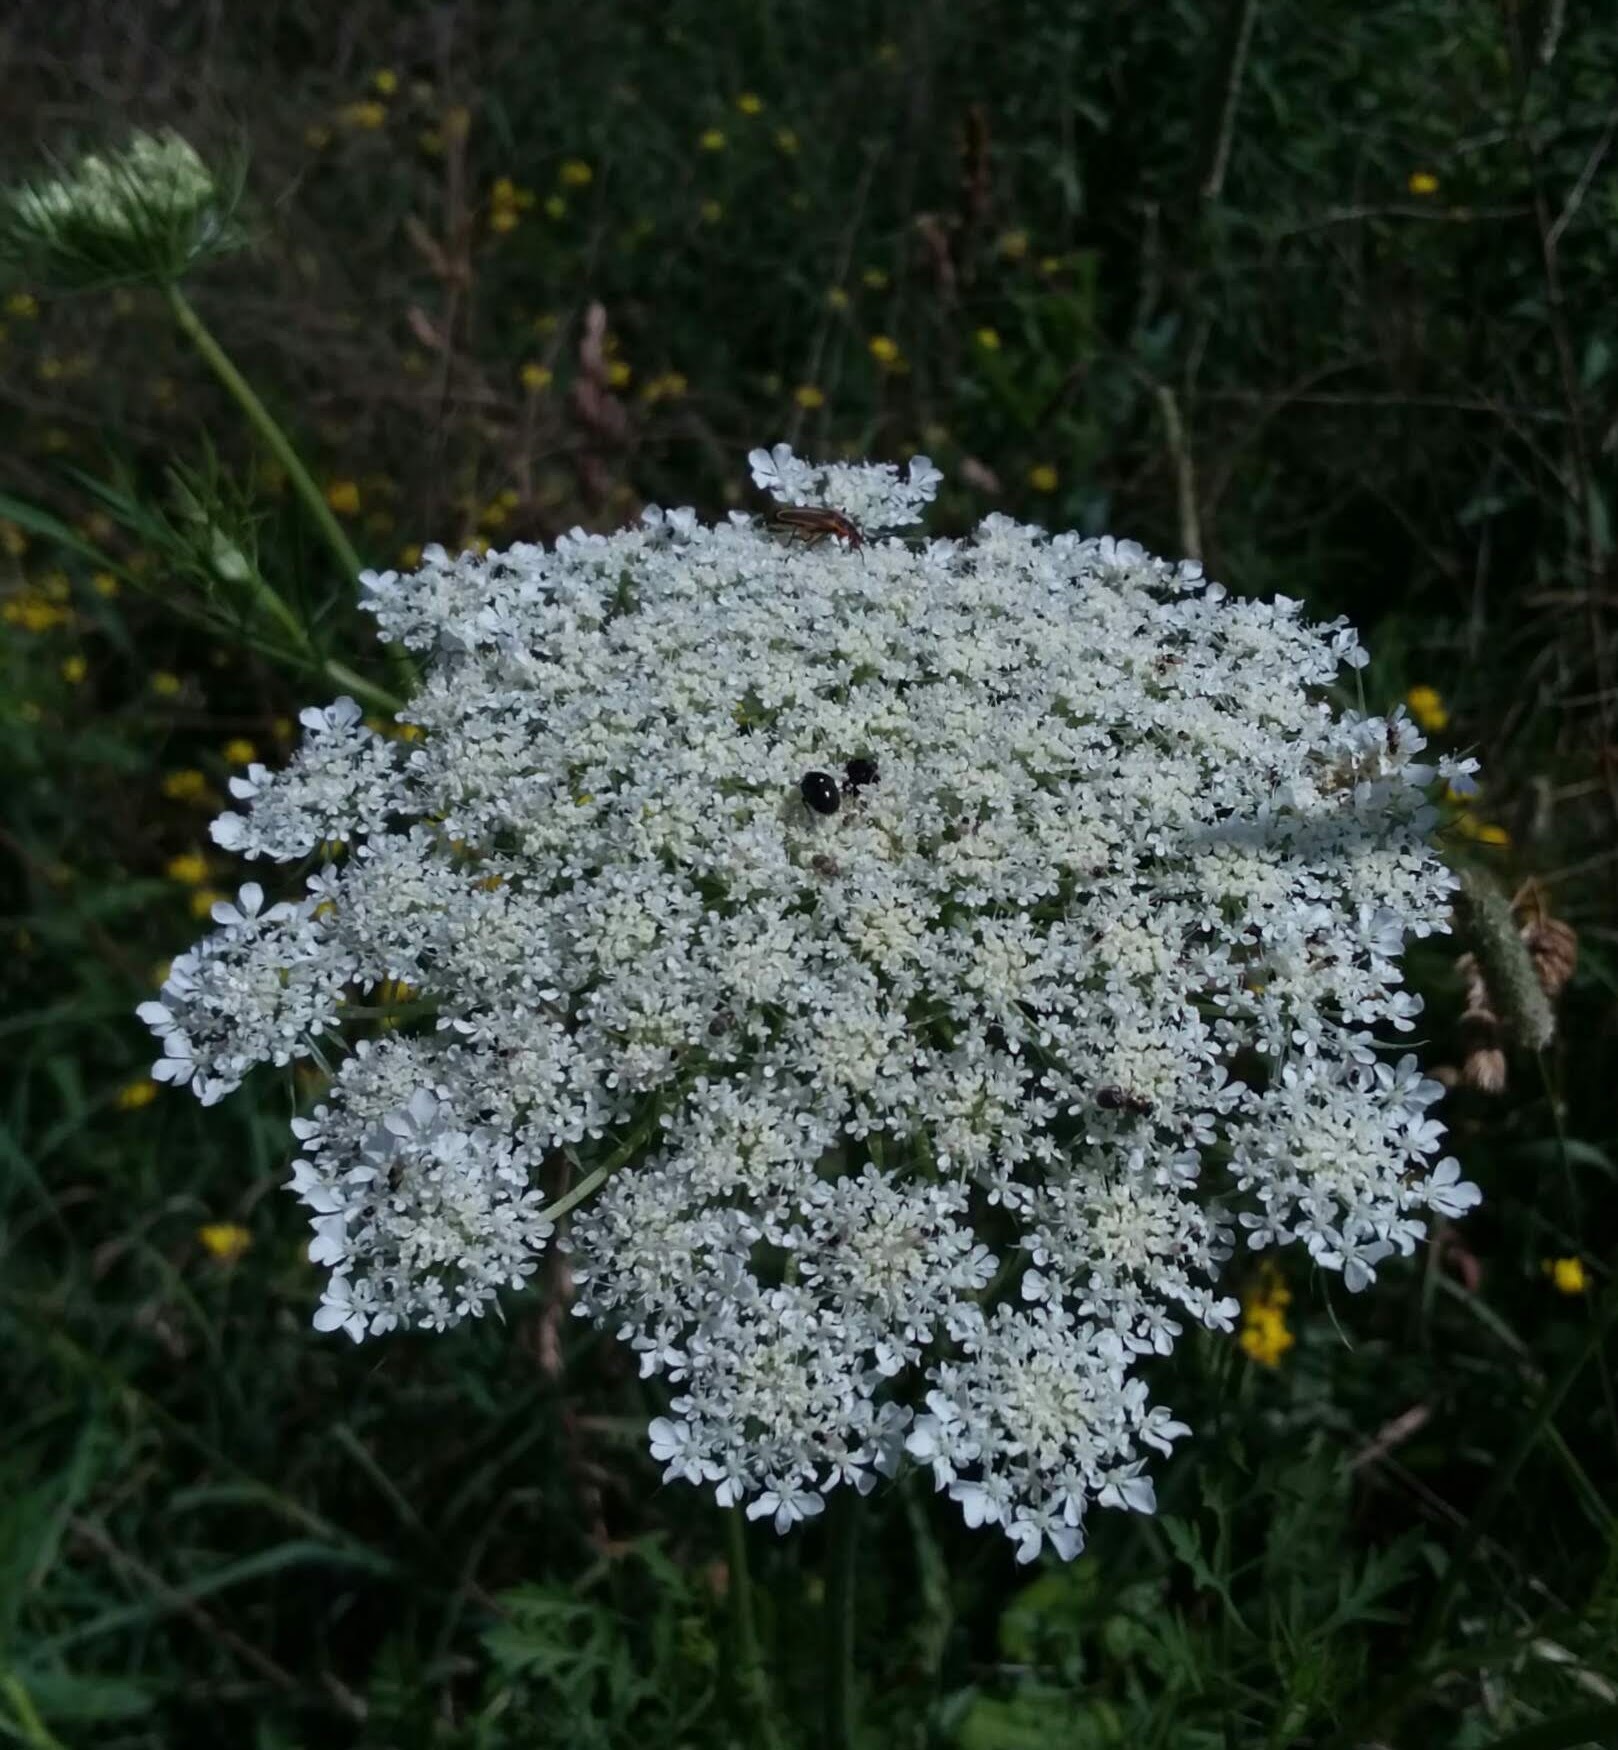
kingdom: Plantae
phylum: Tracheophyta
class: Magnoliopsida
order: Apiales
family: Apiaceae
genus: Daucus
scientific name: Daucus carota
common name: Wild carrot
